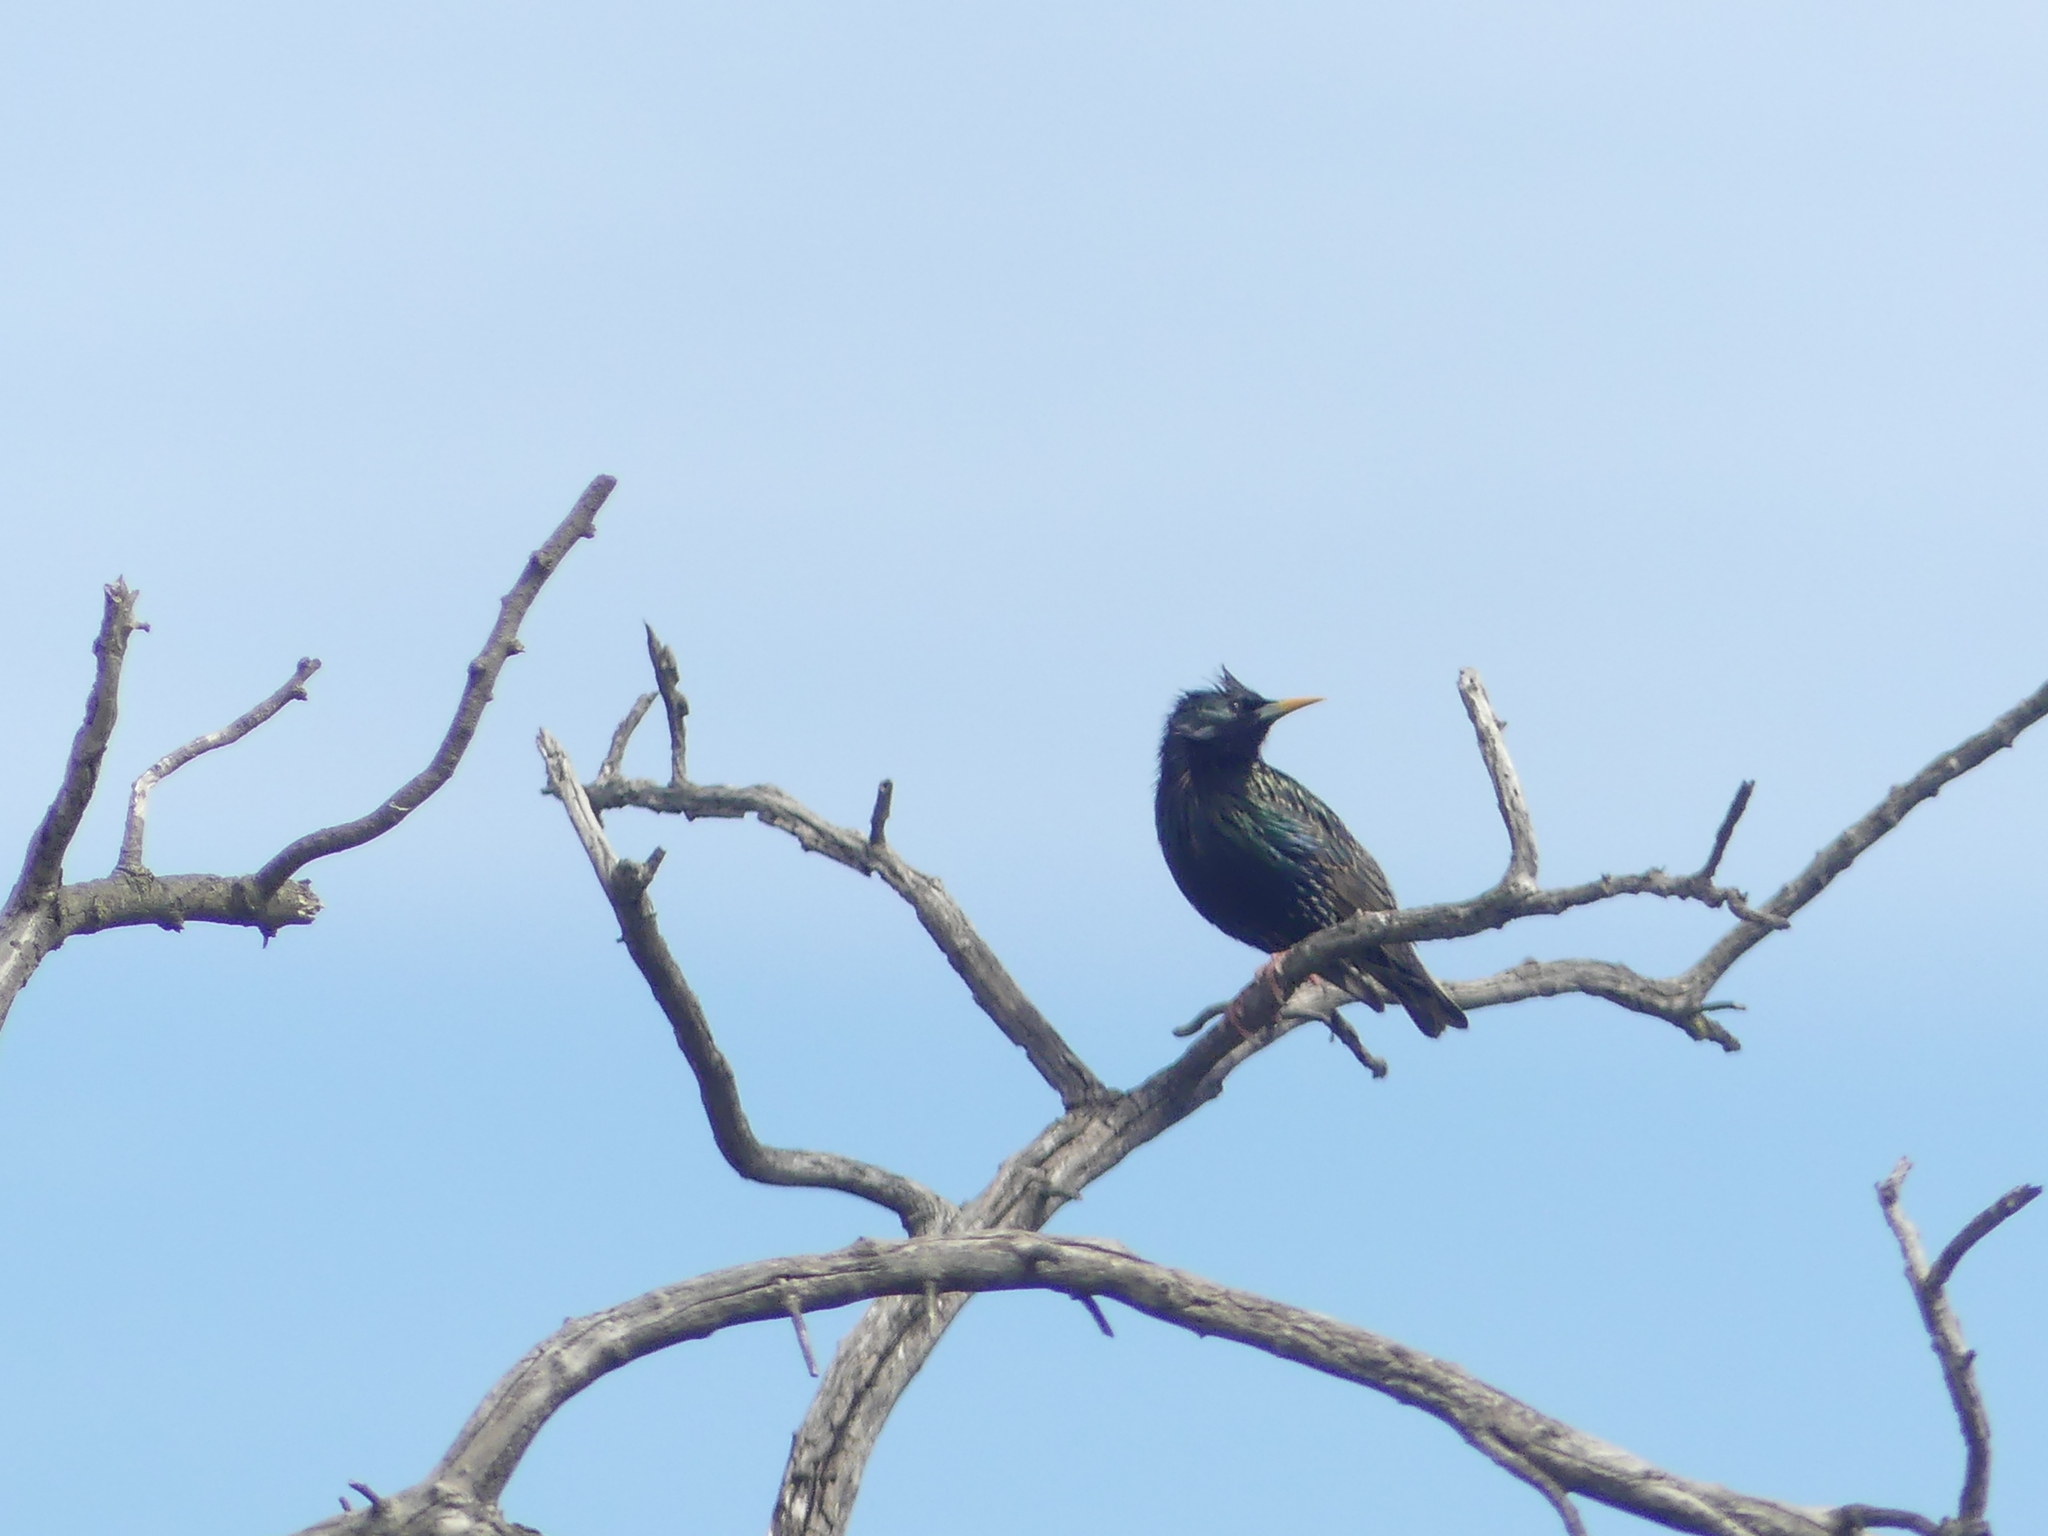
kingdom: Animalia
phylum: Chordata
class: Aves
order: Passeriformes
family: Sturnidae
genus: Sturnus
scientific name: Sturnus vulgaris
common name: Common starling
